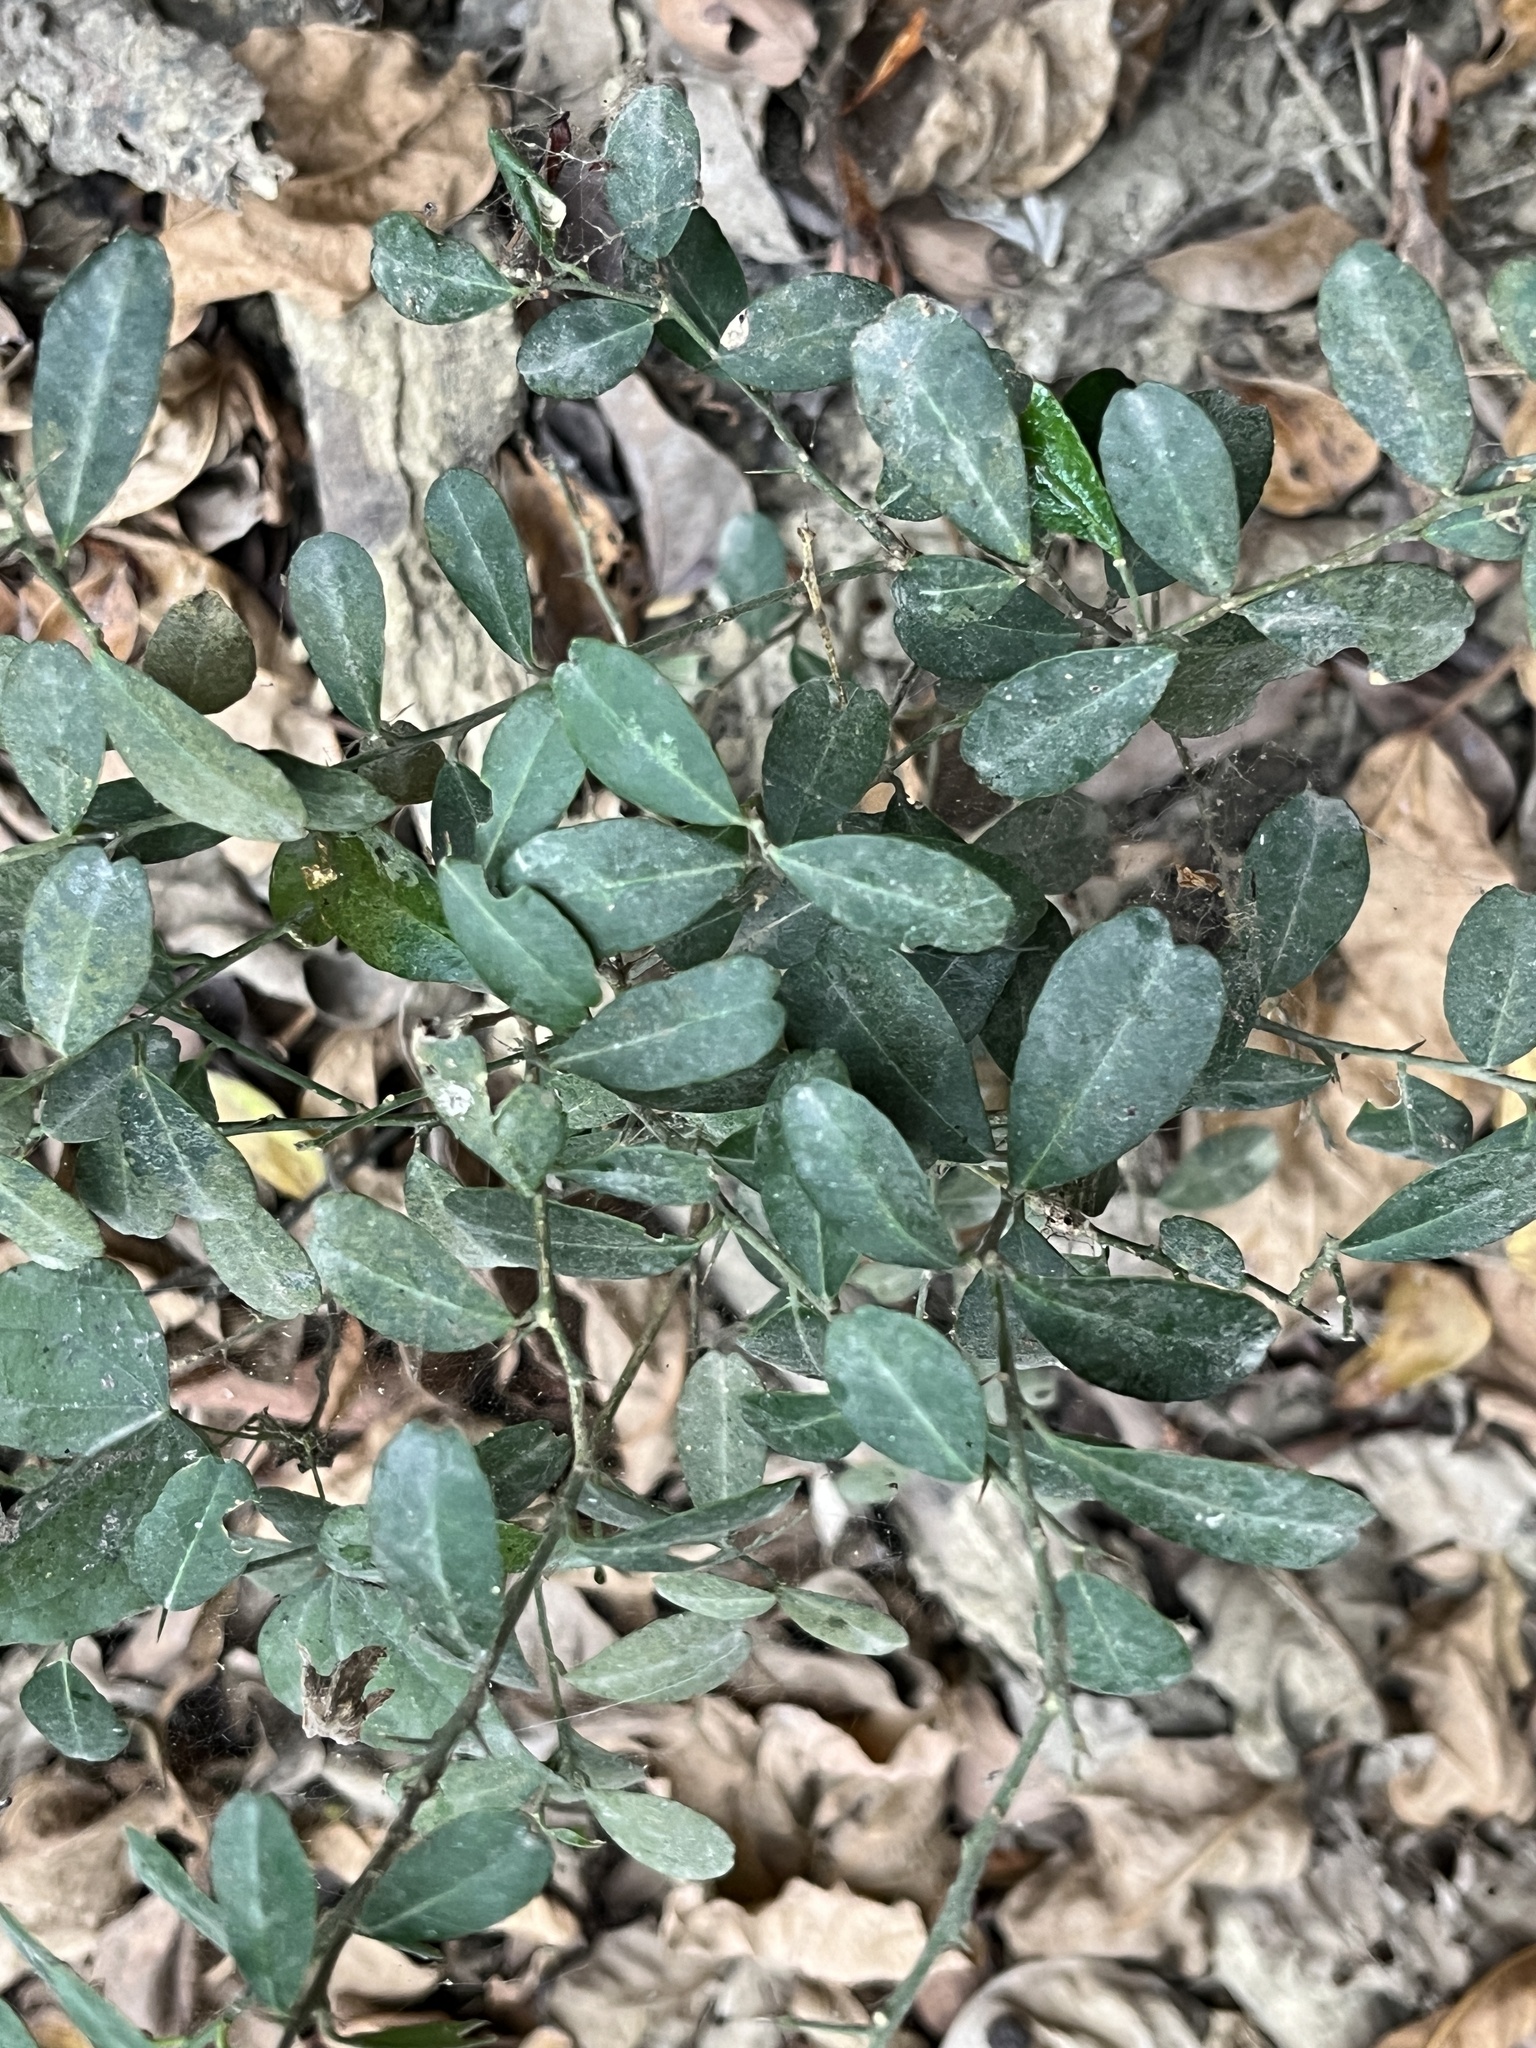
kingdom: Plantae
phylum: Tracheophyta
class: Magnoliopsida
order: Sapindales
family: Rutaceae
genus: Atalantia
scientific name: Atalantia buxifolia
